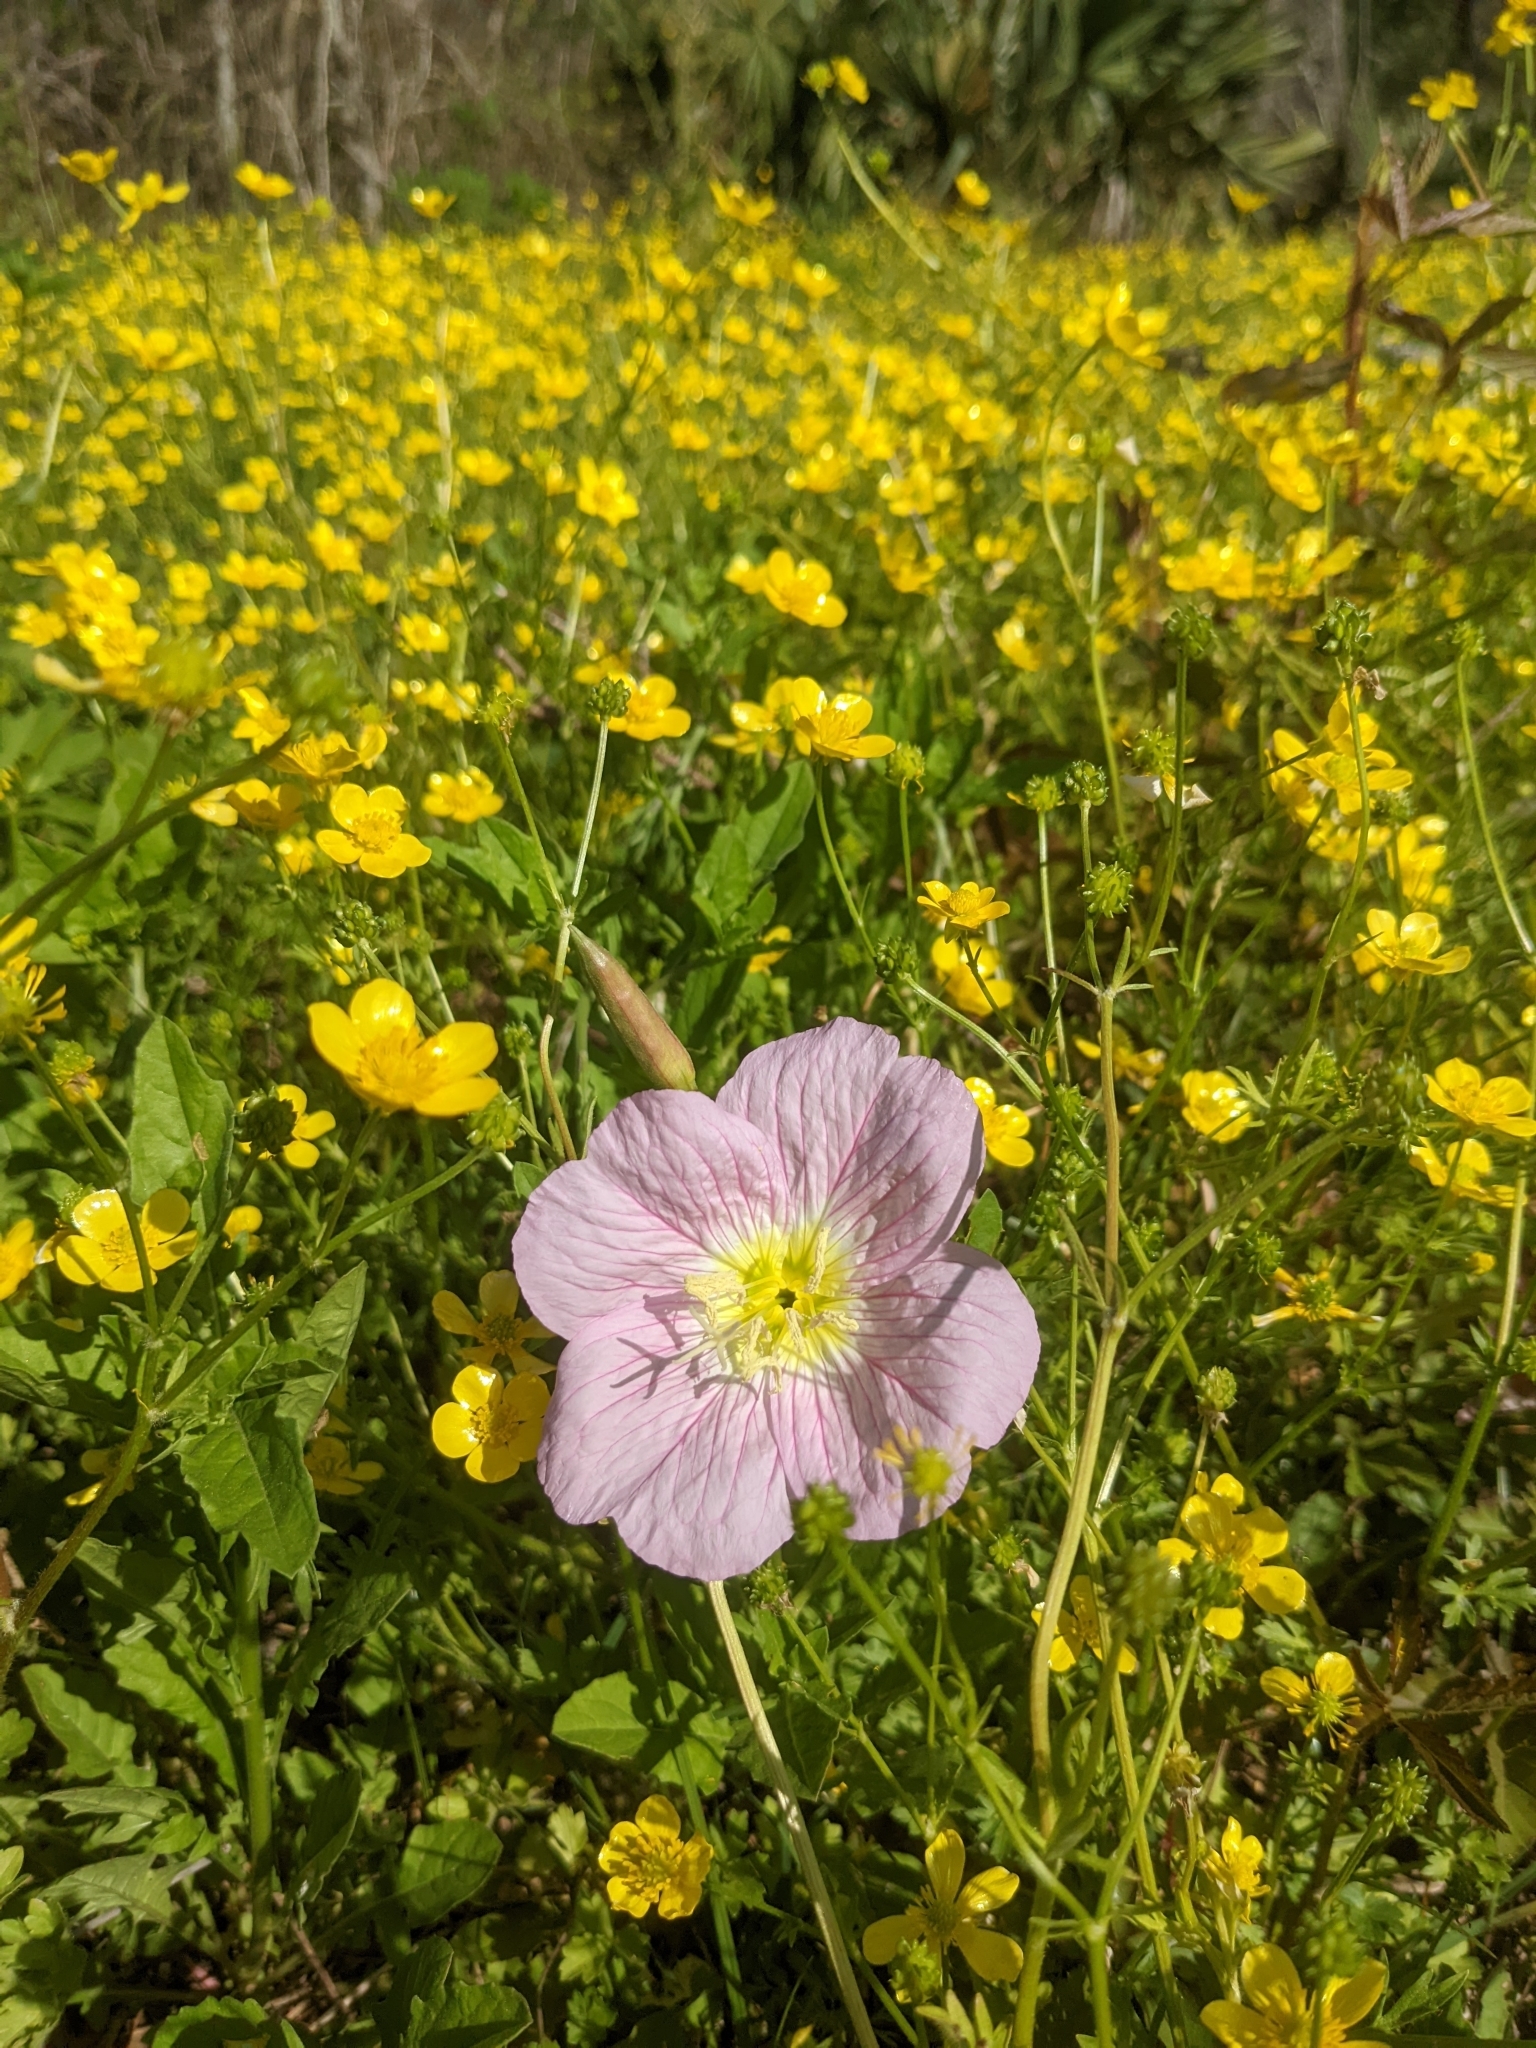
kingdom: Plantae
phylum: Tracheophyta
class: Magnoliopsida
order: Myrtales
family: Onagraceae
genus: Oenothera
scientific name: Oenothera speciosa
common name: White evening-primrose
